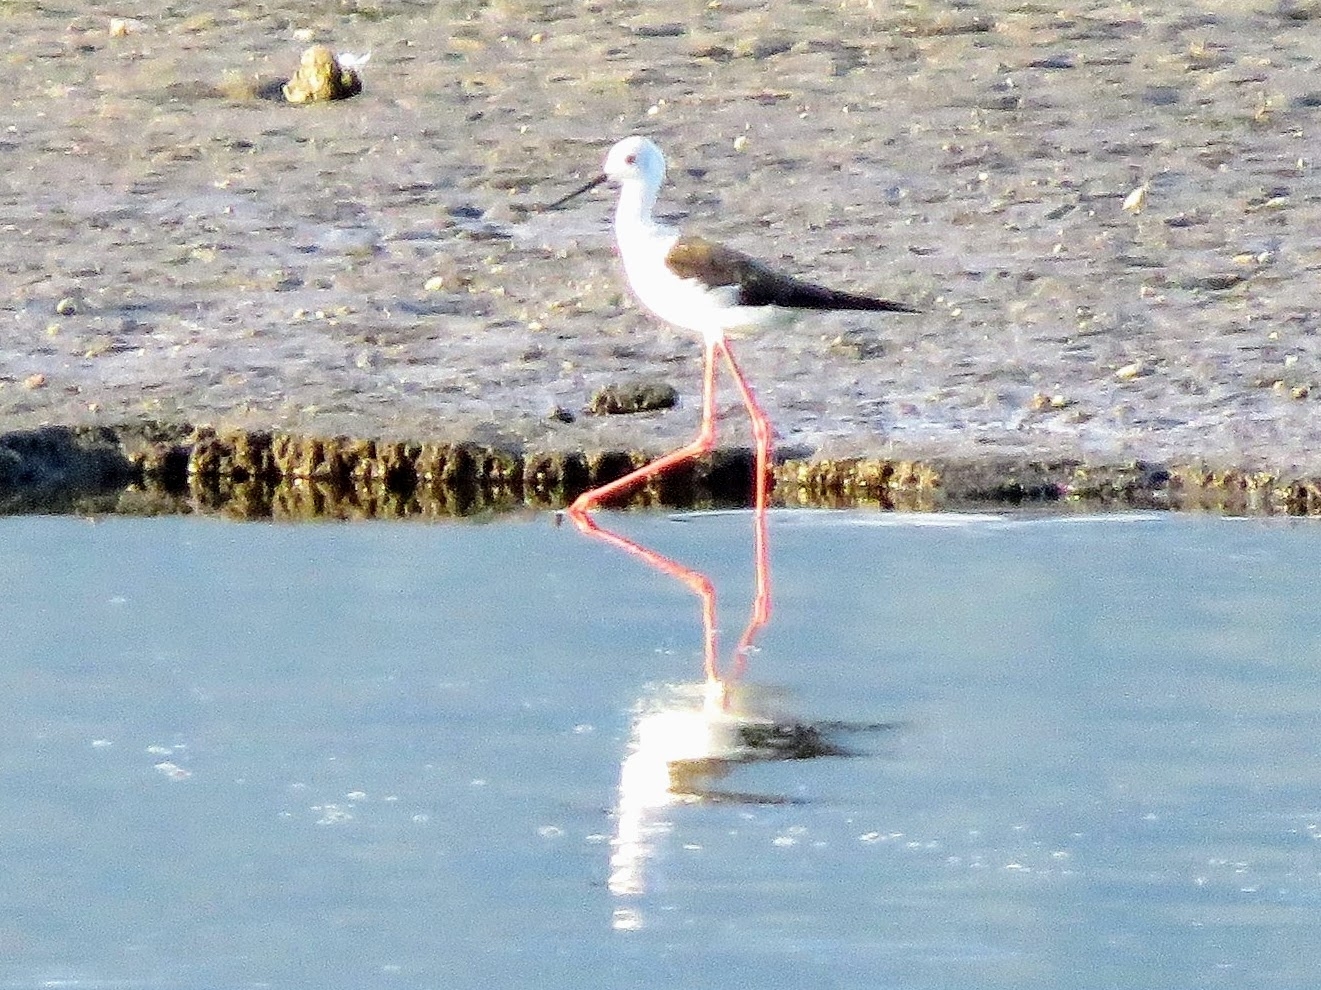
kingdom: Animalia
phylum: Chordata
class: Aves
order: Charadriiformes
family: Recurvirostridae
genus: Himantopus
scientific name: Himantopus himantopus
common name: Black-winged stilt
